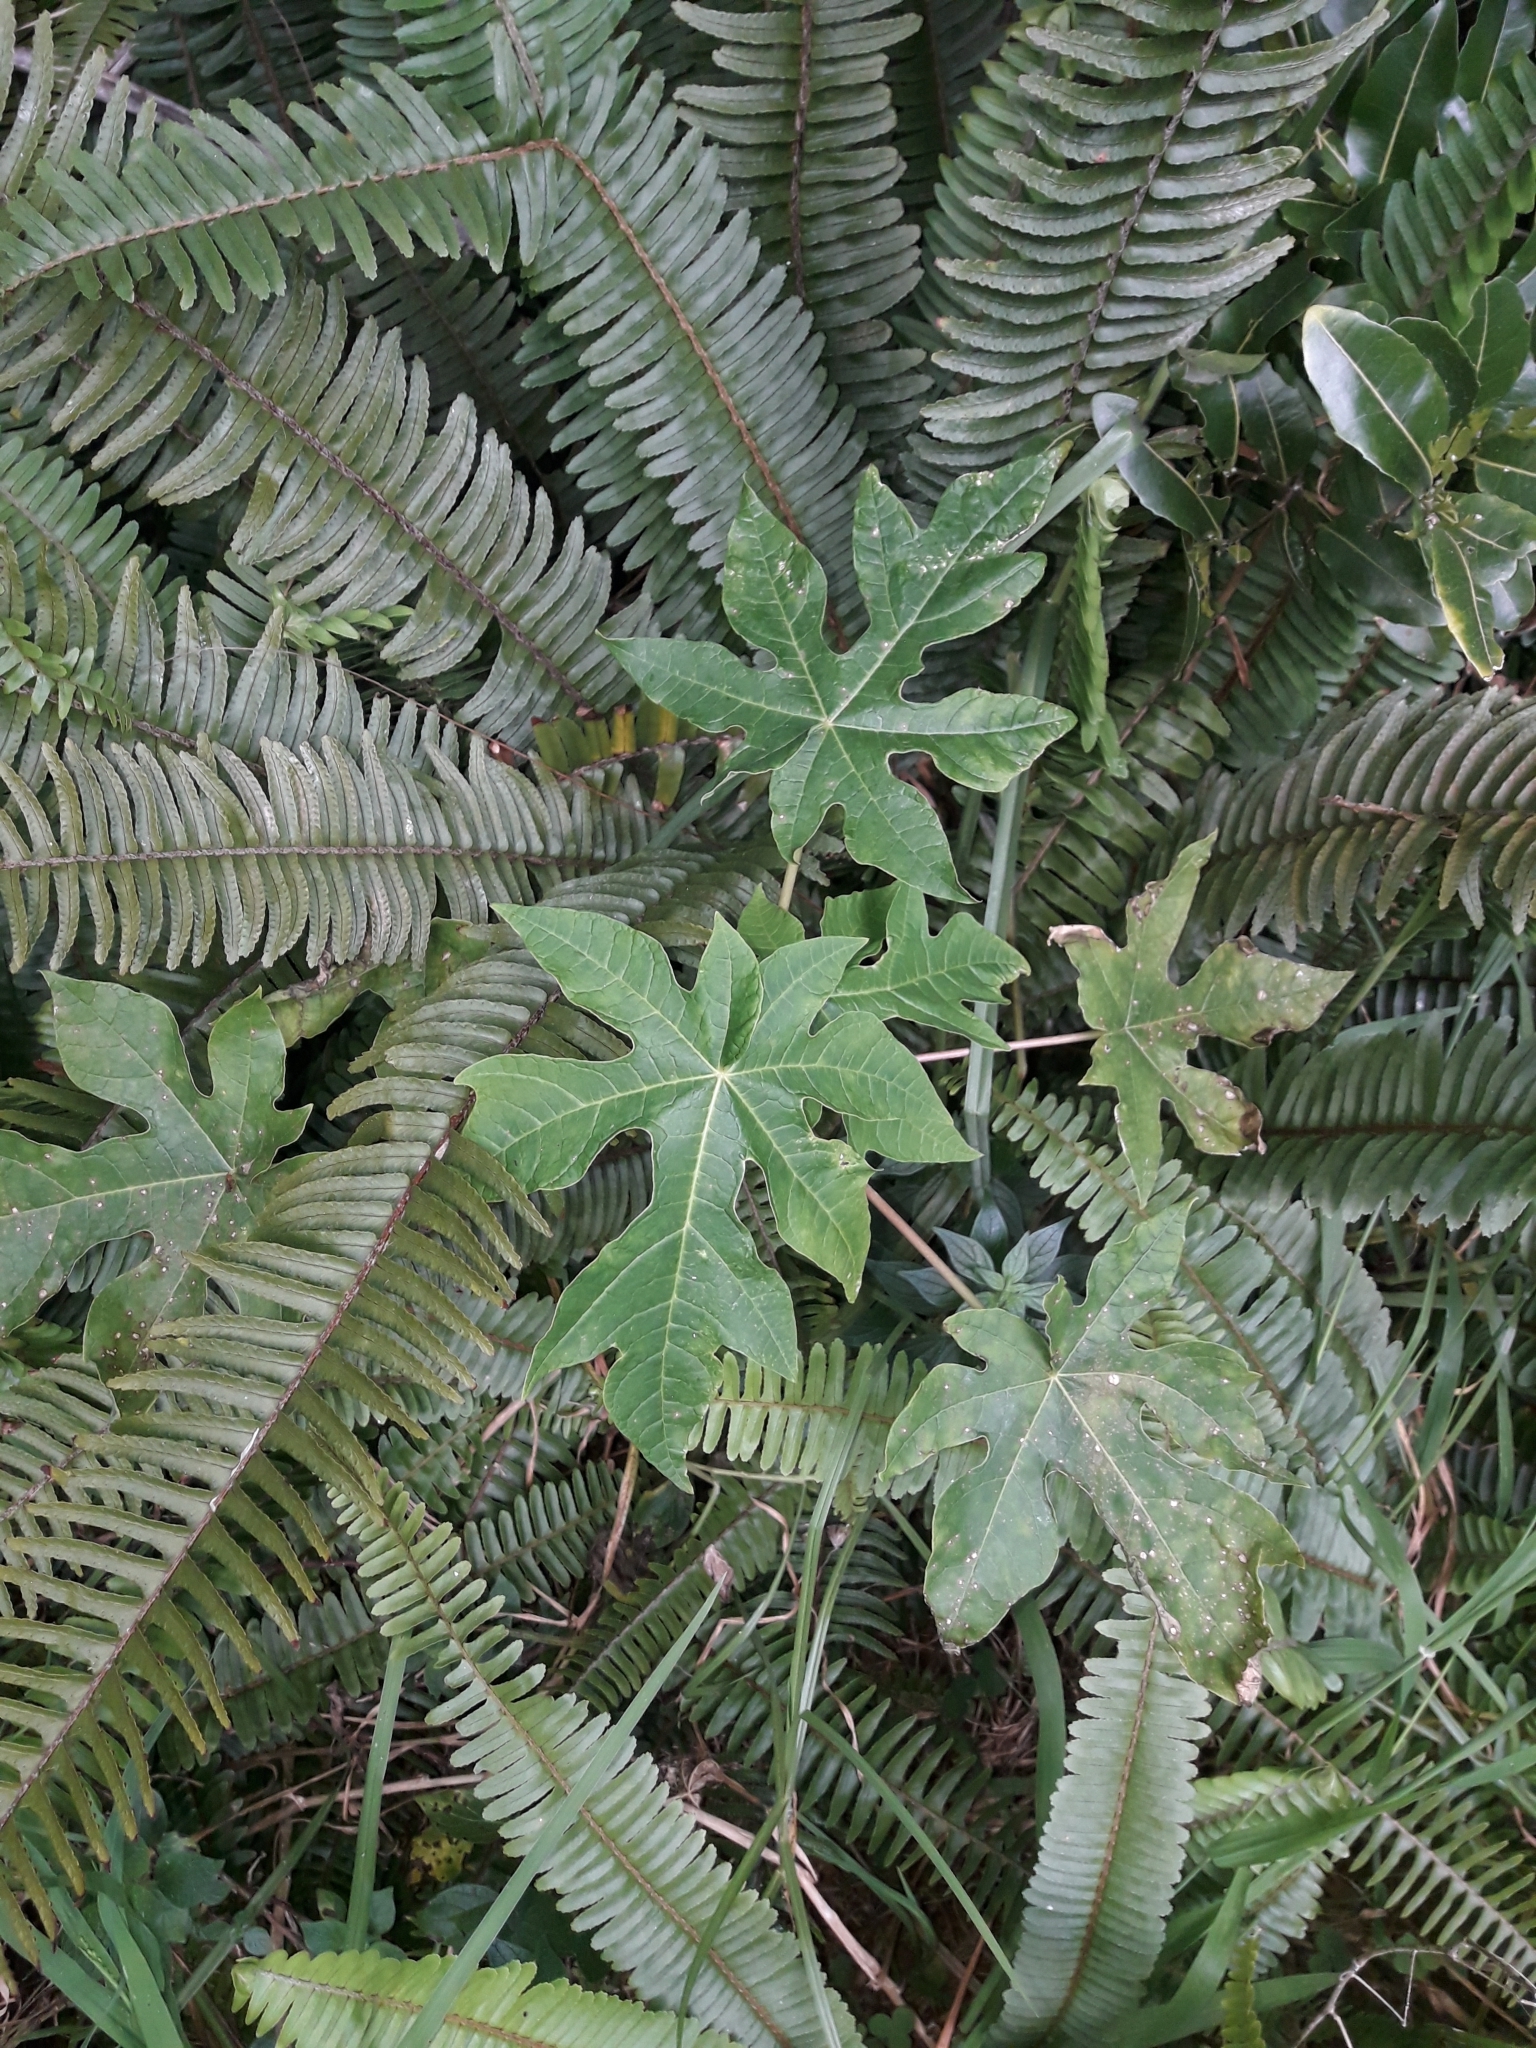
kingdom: Plantae
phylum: Tracheophyta
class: Magnoliopsida
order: Brassicales
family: Caricaceae
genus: Carica
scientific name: Carica papaya
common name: Papaya
